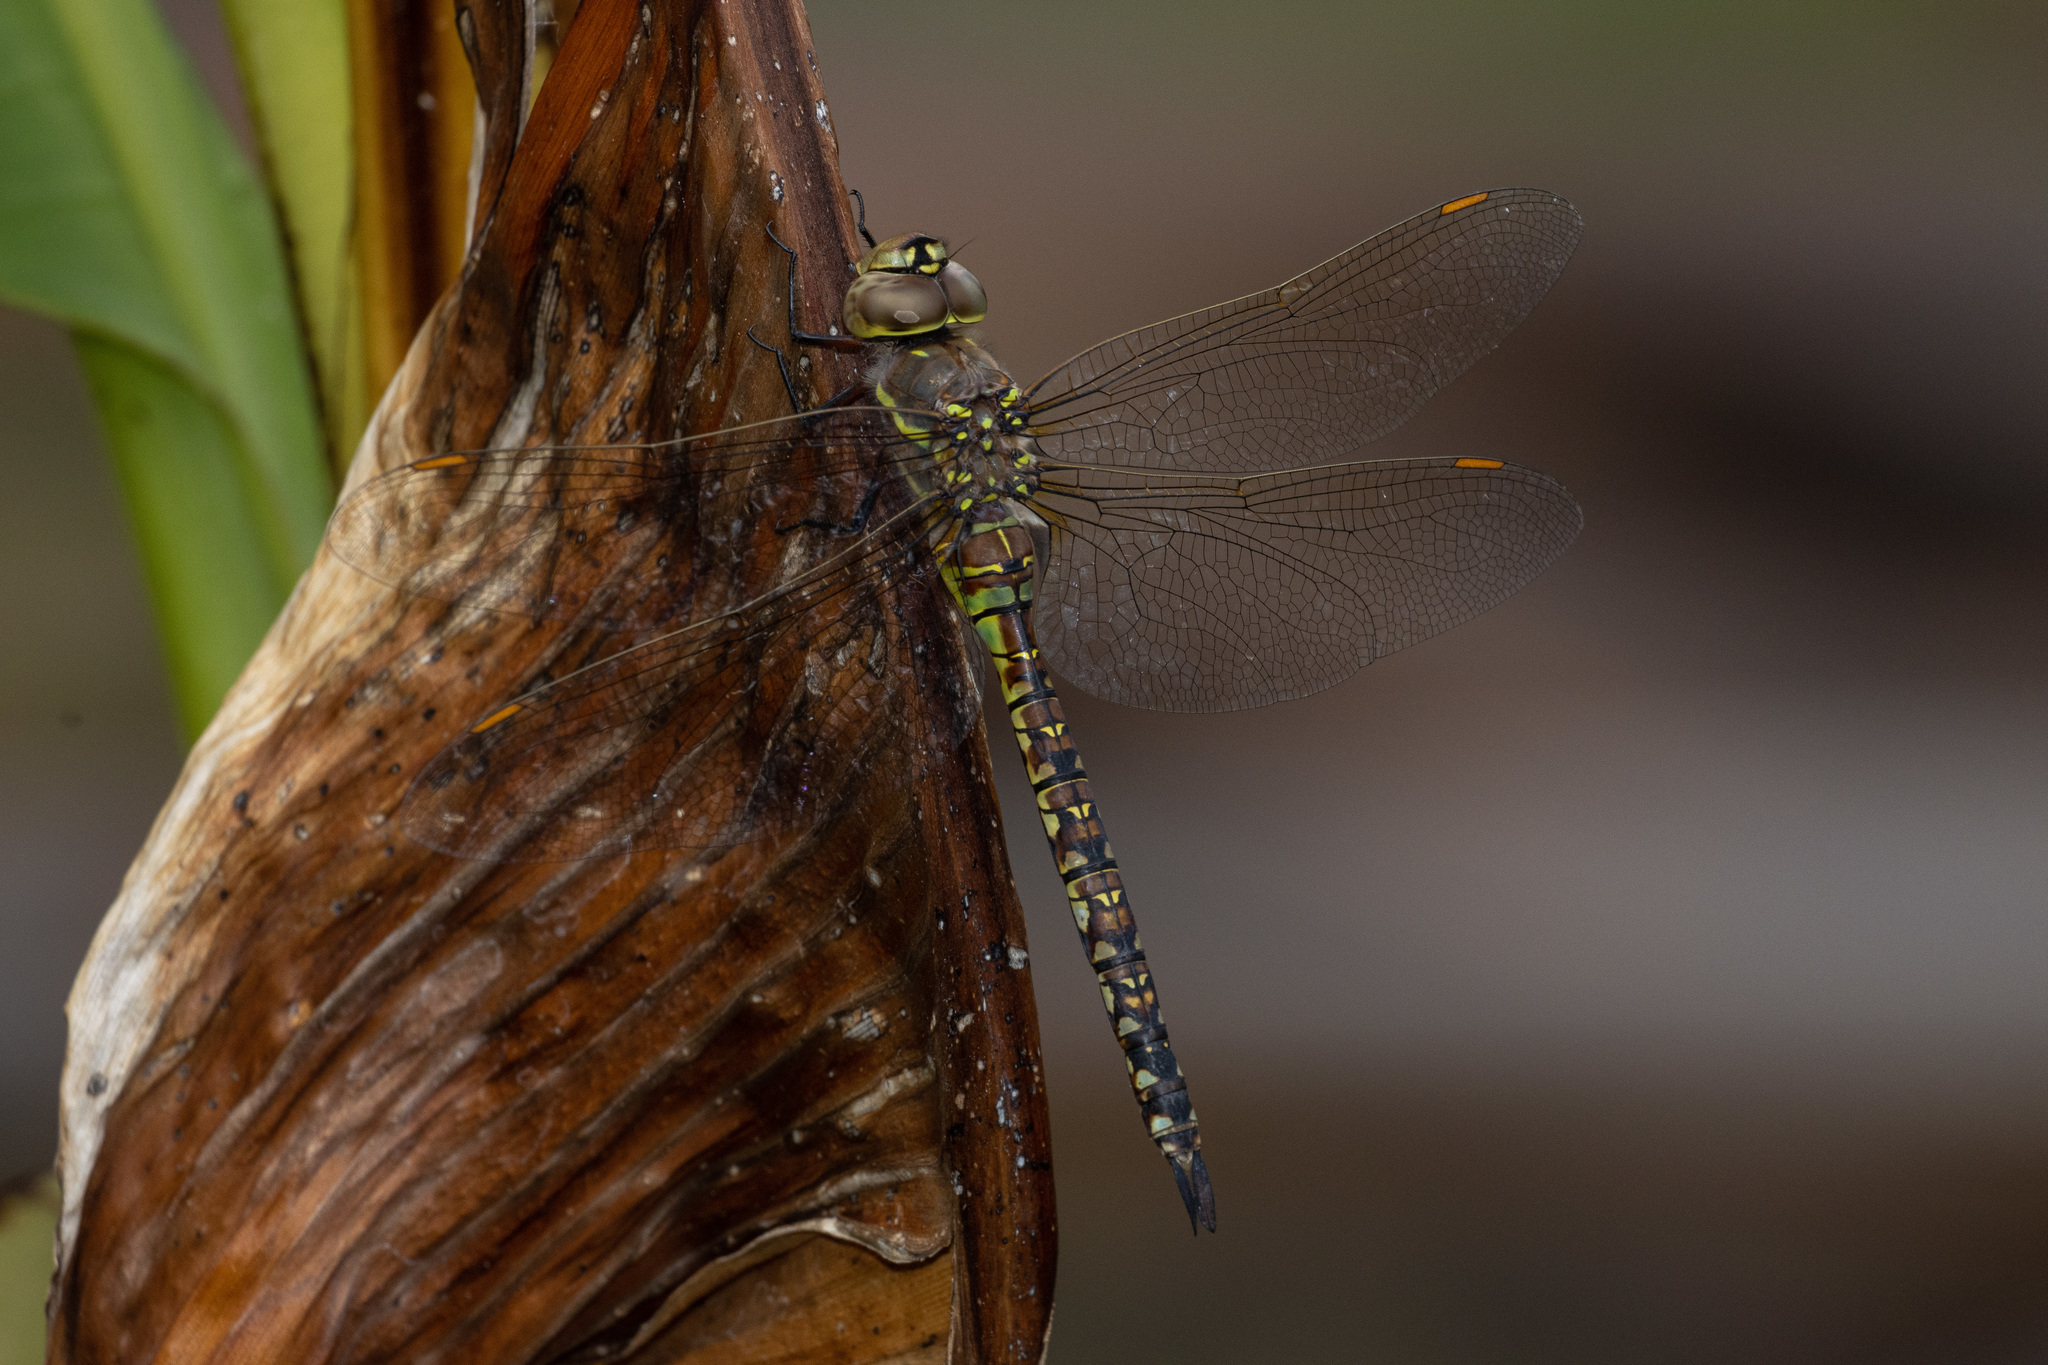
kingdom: Animalia
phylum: Arthropoda
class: Insecta
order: Odonata
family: Aeshnidae
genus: Rhionaeschna
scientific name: Rhionaeschna multicolor
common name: Blue-eyed darner
